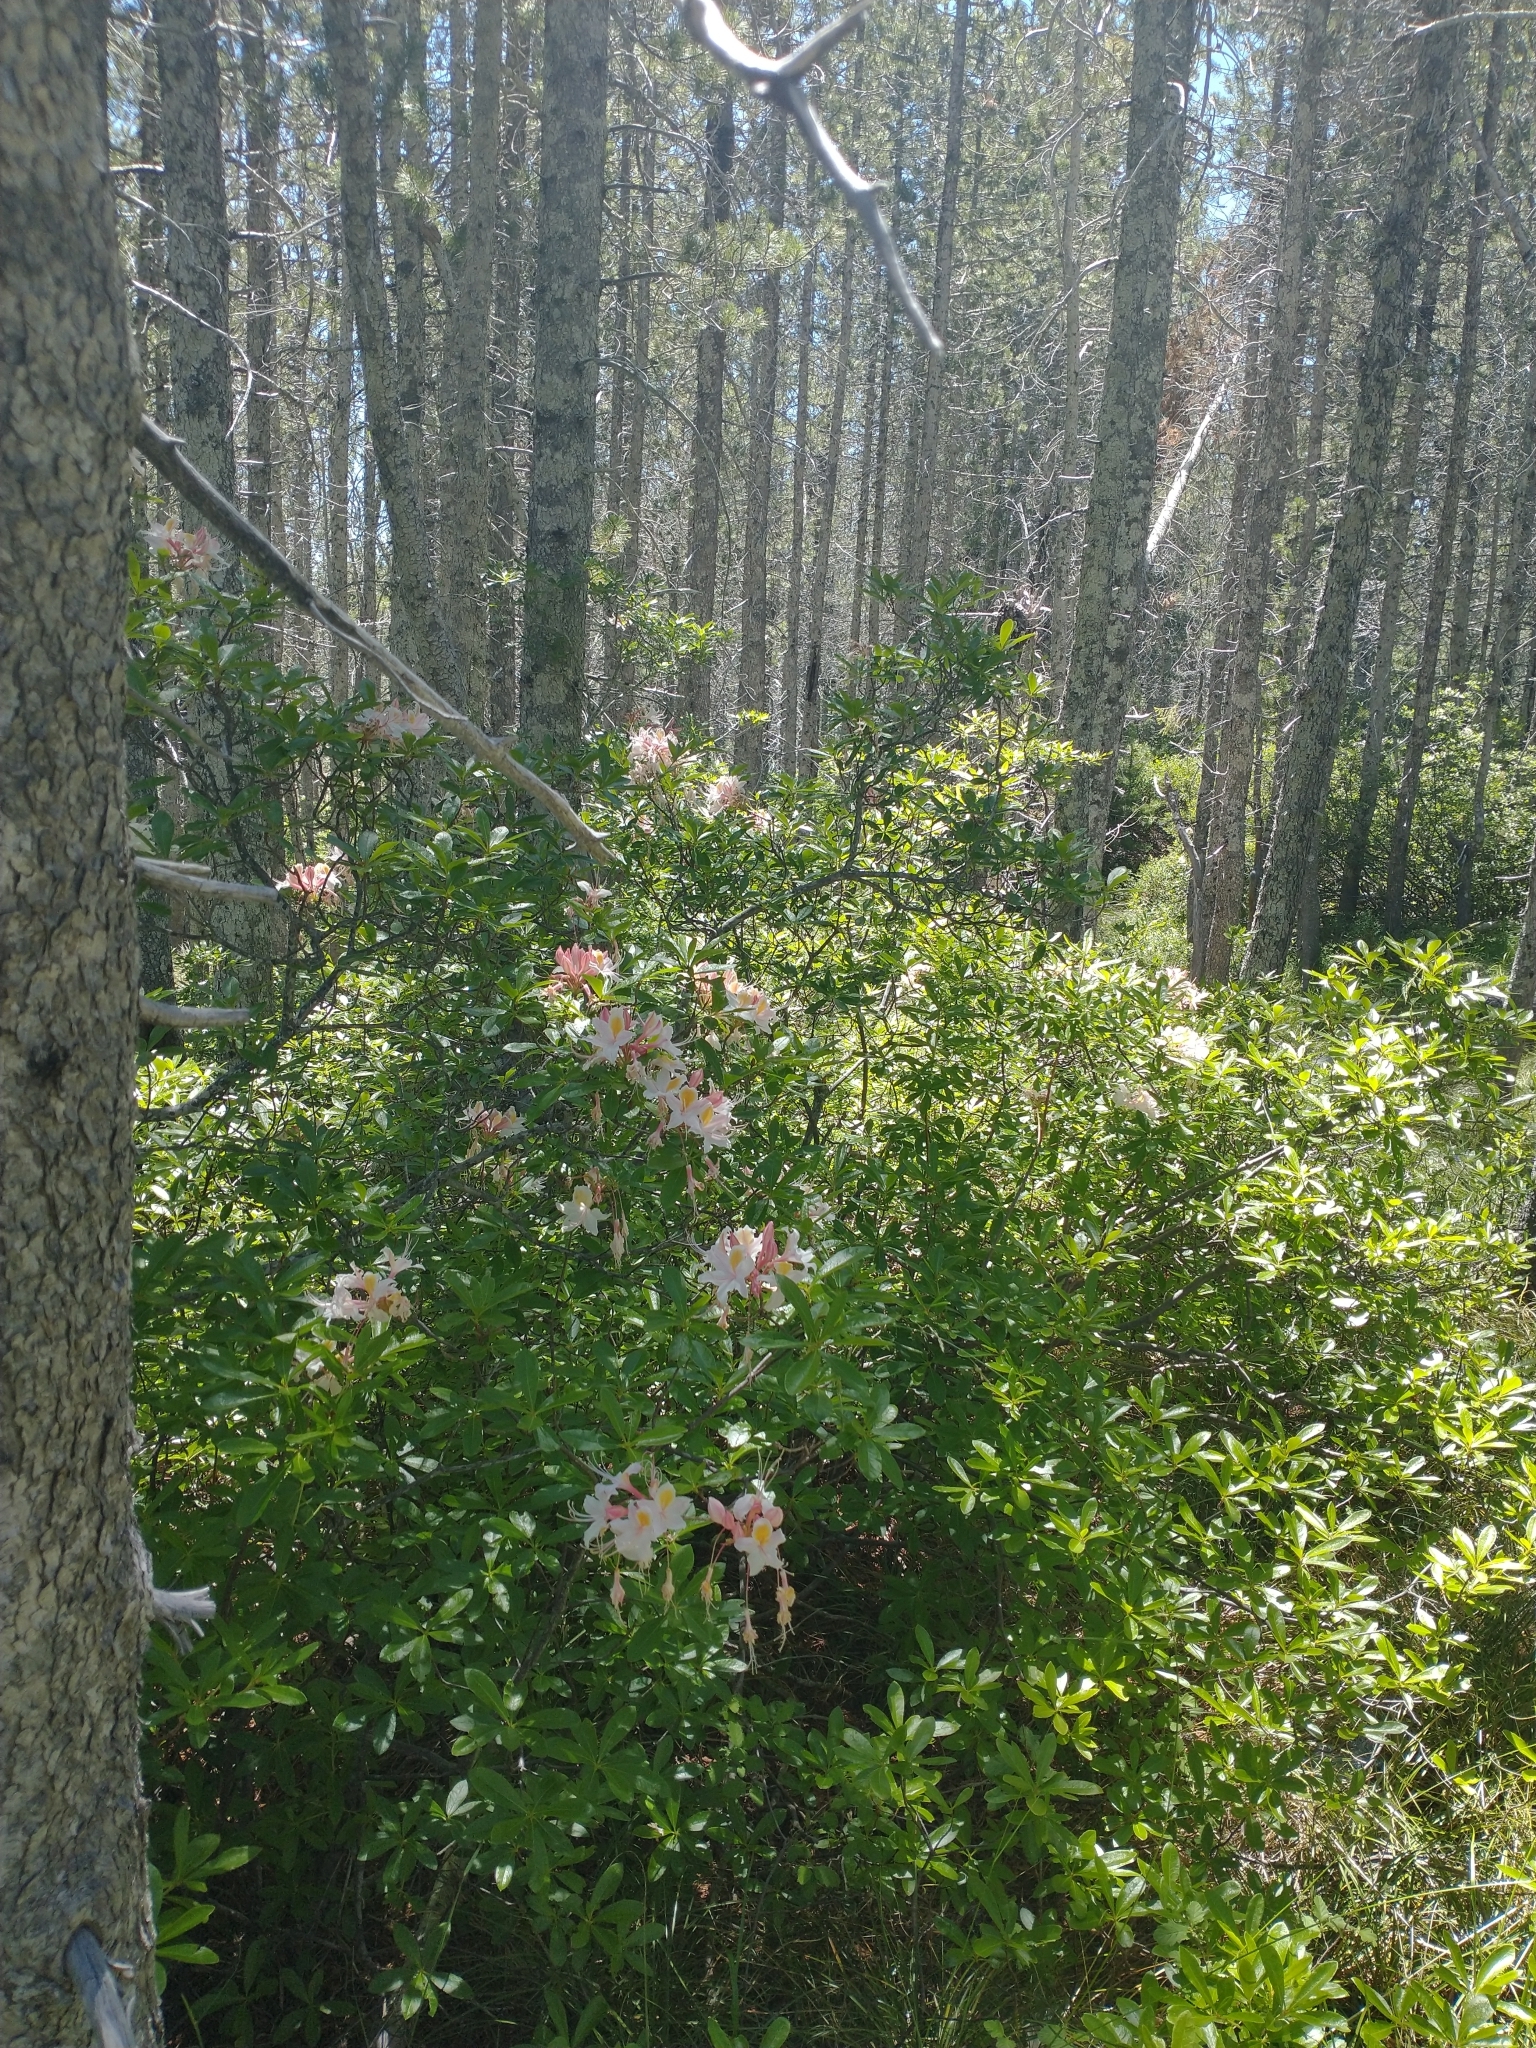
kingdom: Plantae
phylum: Tracheophyta
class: Magnoliopsida
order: Ericales
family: Ericaceae
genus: Rhododendron
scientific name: Rhododendron occidentale
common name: Western azalea
